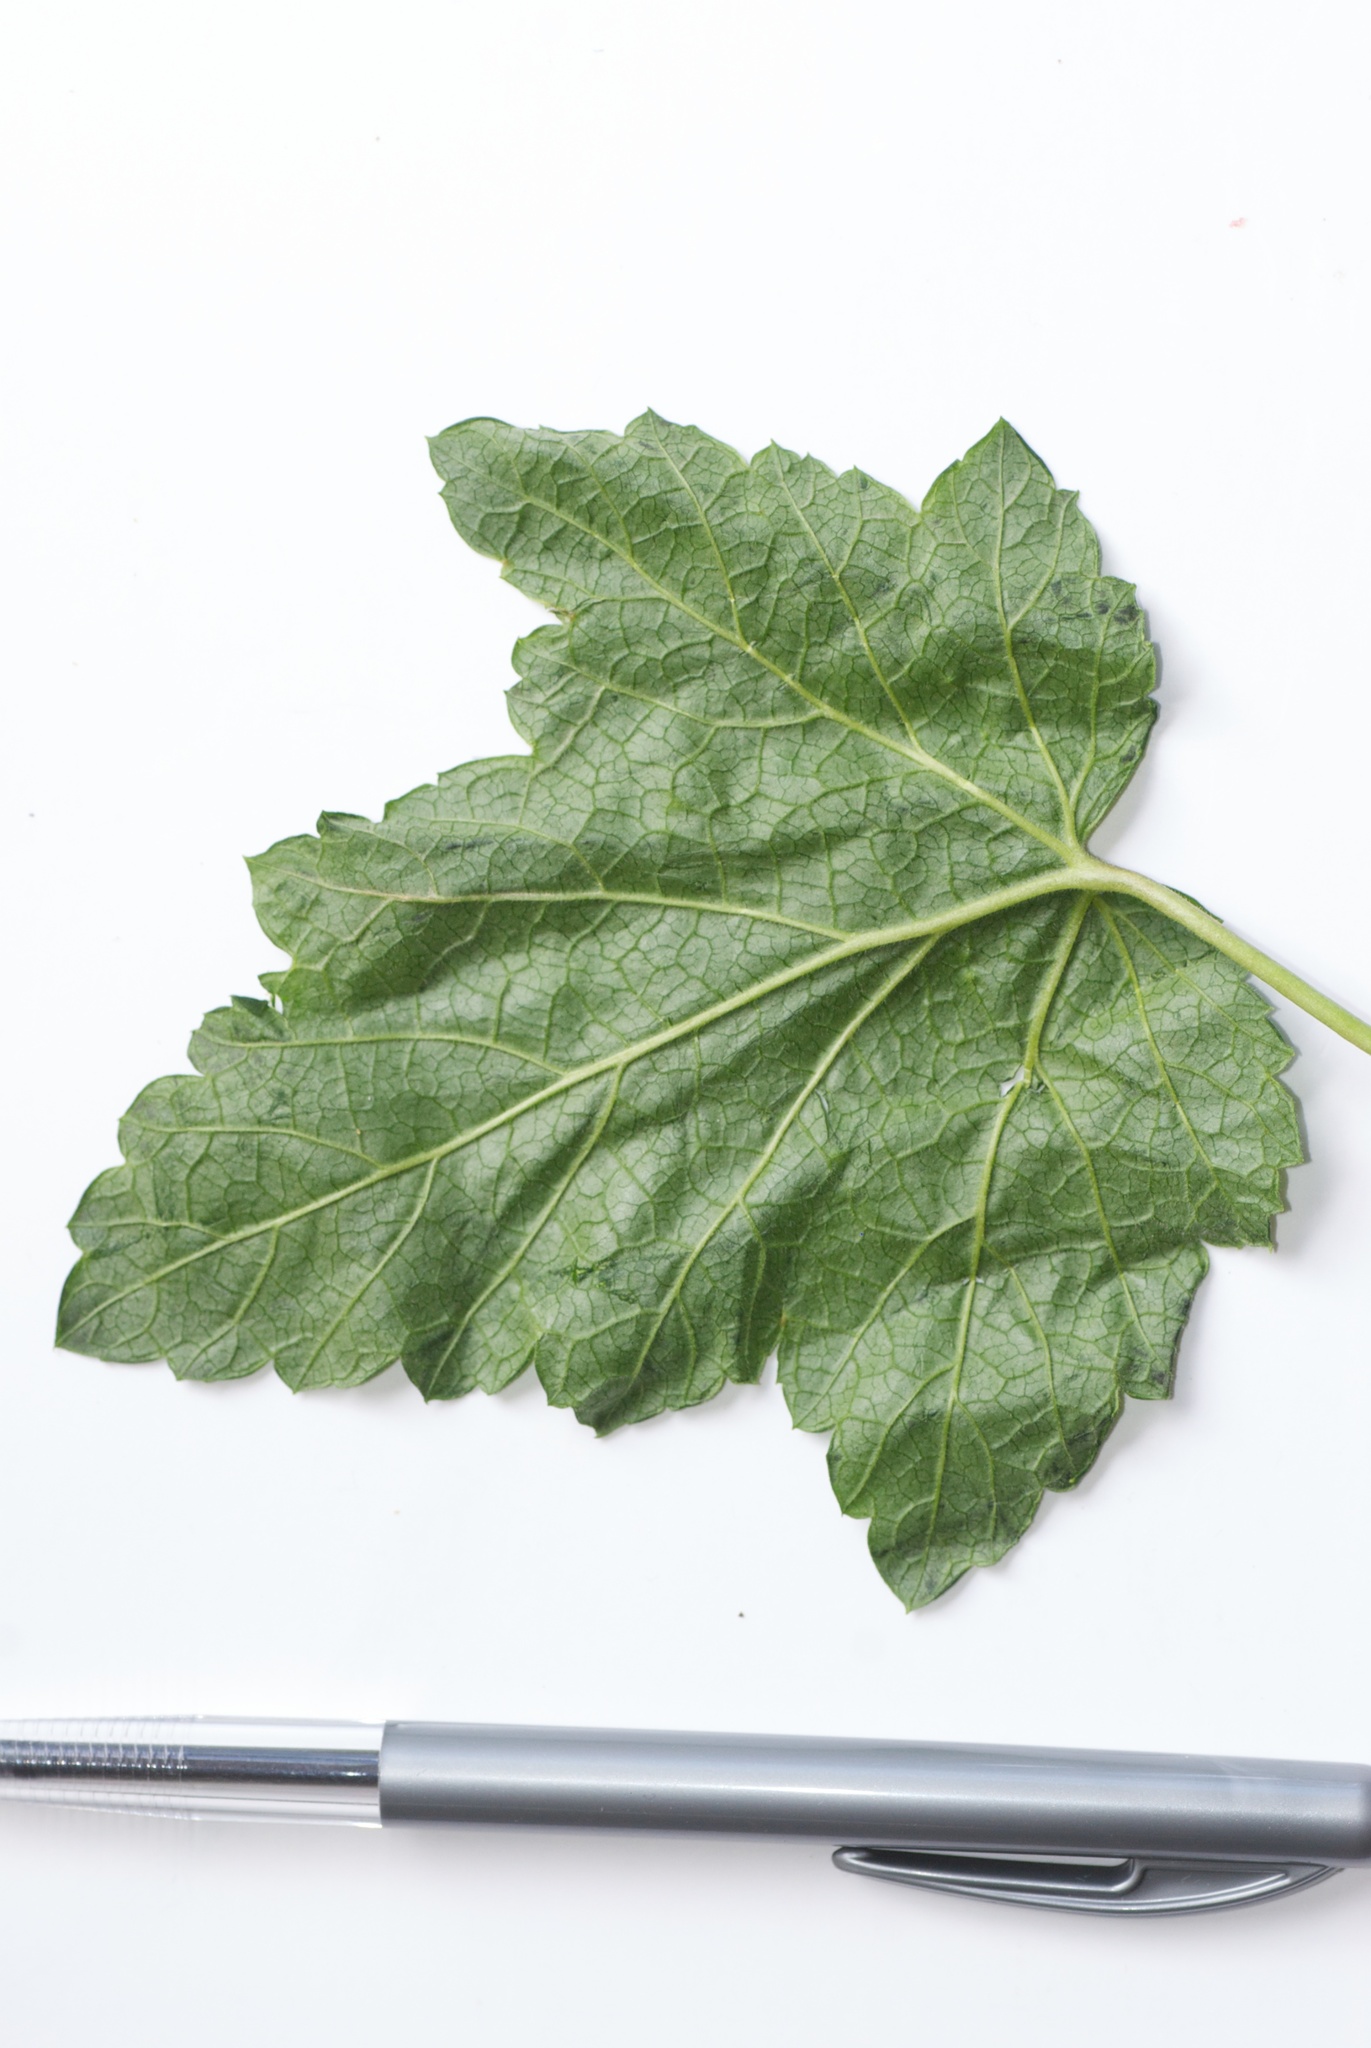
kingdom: Plantae
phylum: Tracheophyta
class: Magnoliopsida
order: Saxifragales
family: Grossulariaceae
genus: Ribes
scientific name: Ribes uva-crispa
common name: Gooseberry
